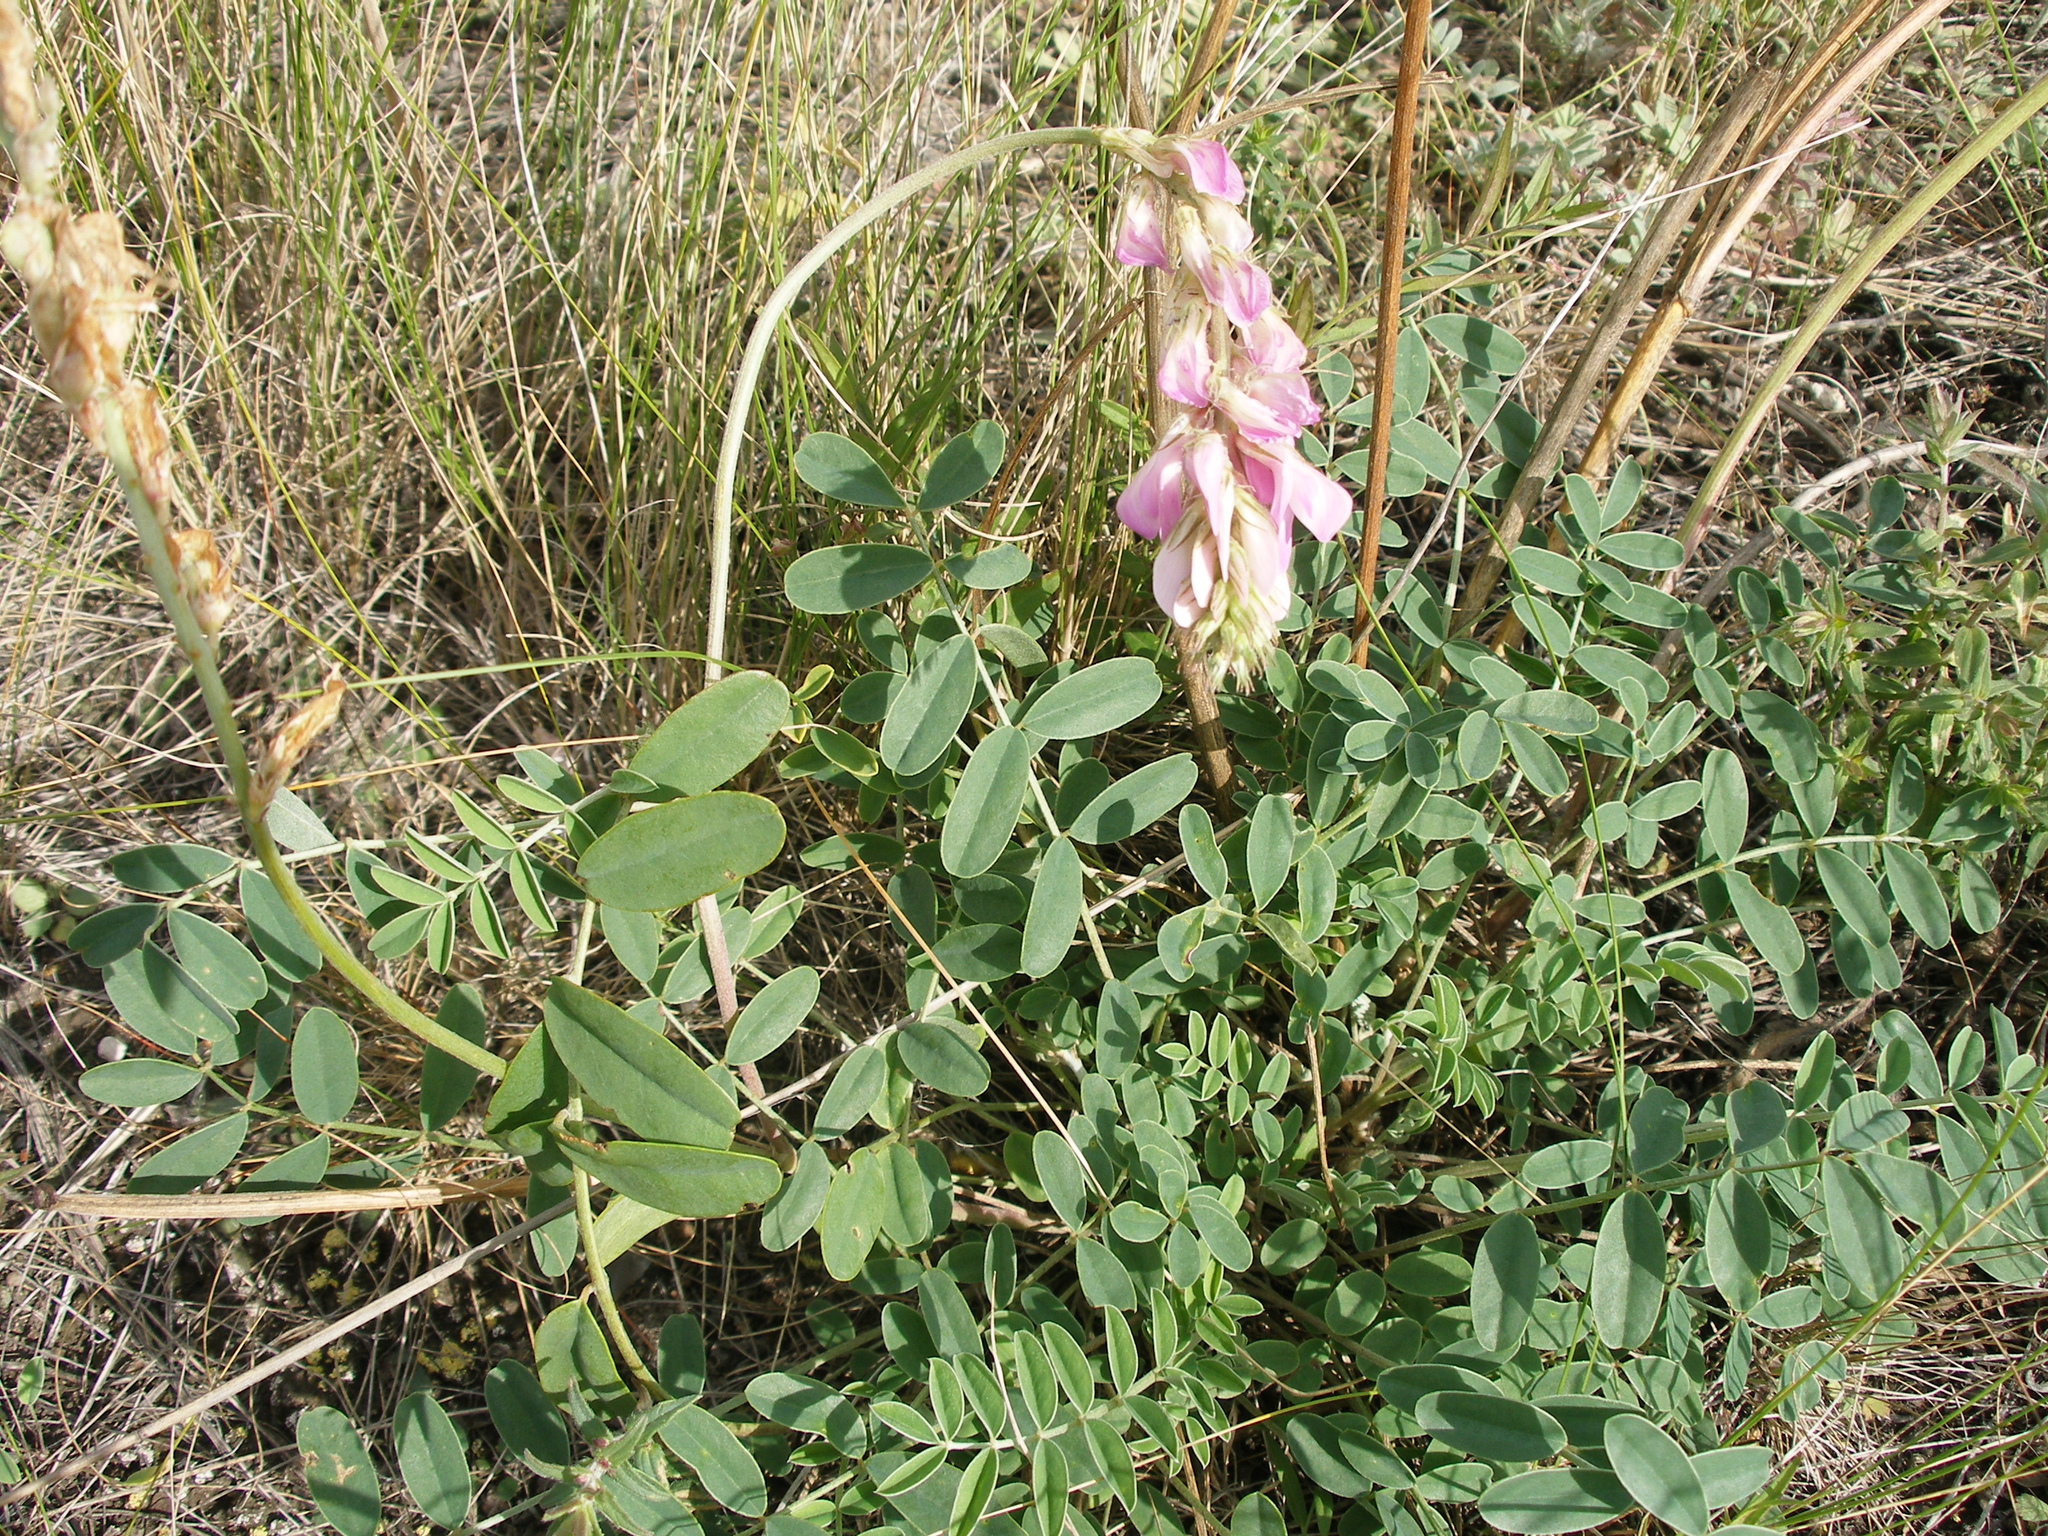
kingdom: Plantae
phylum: Tracheophyta
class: Magnoliopsida
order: Fabales
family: Fabaceae
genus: Hedysarum
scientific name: Hedysarum gmelinii
